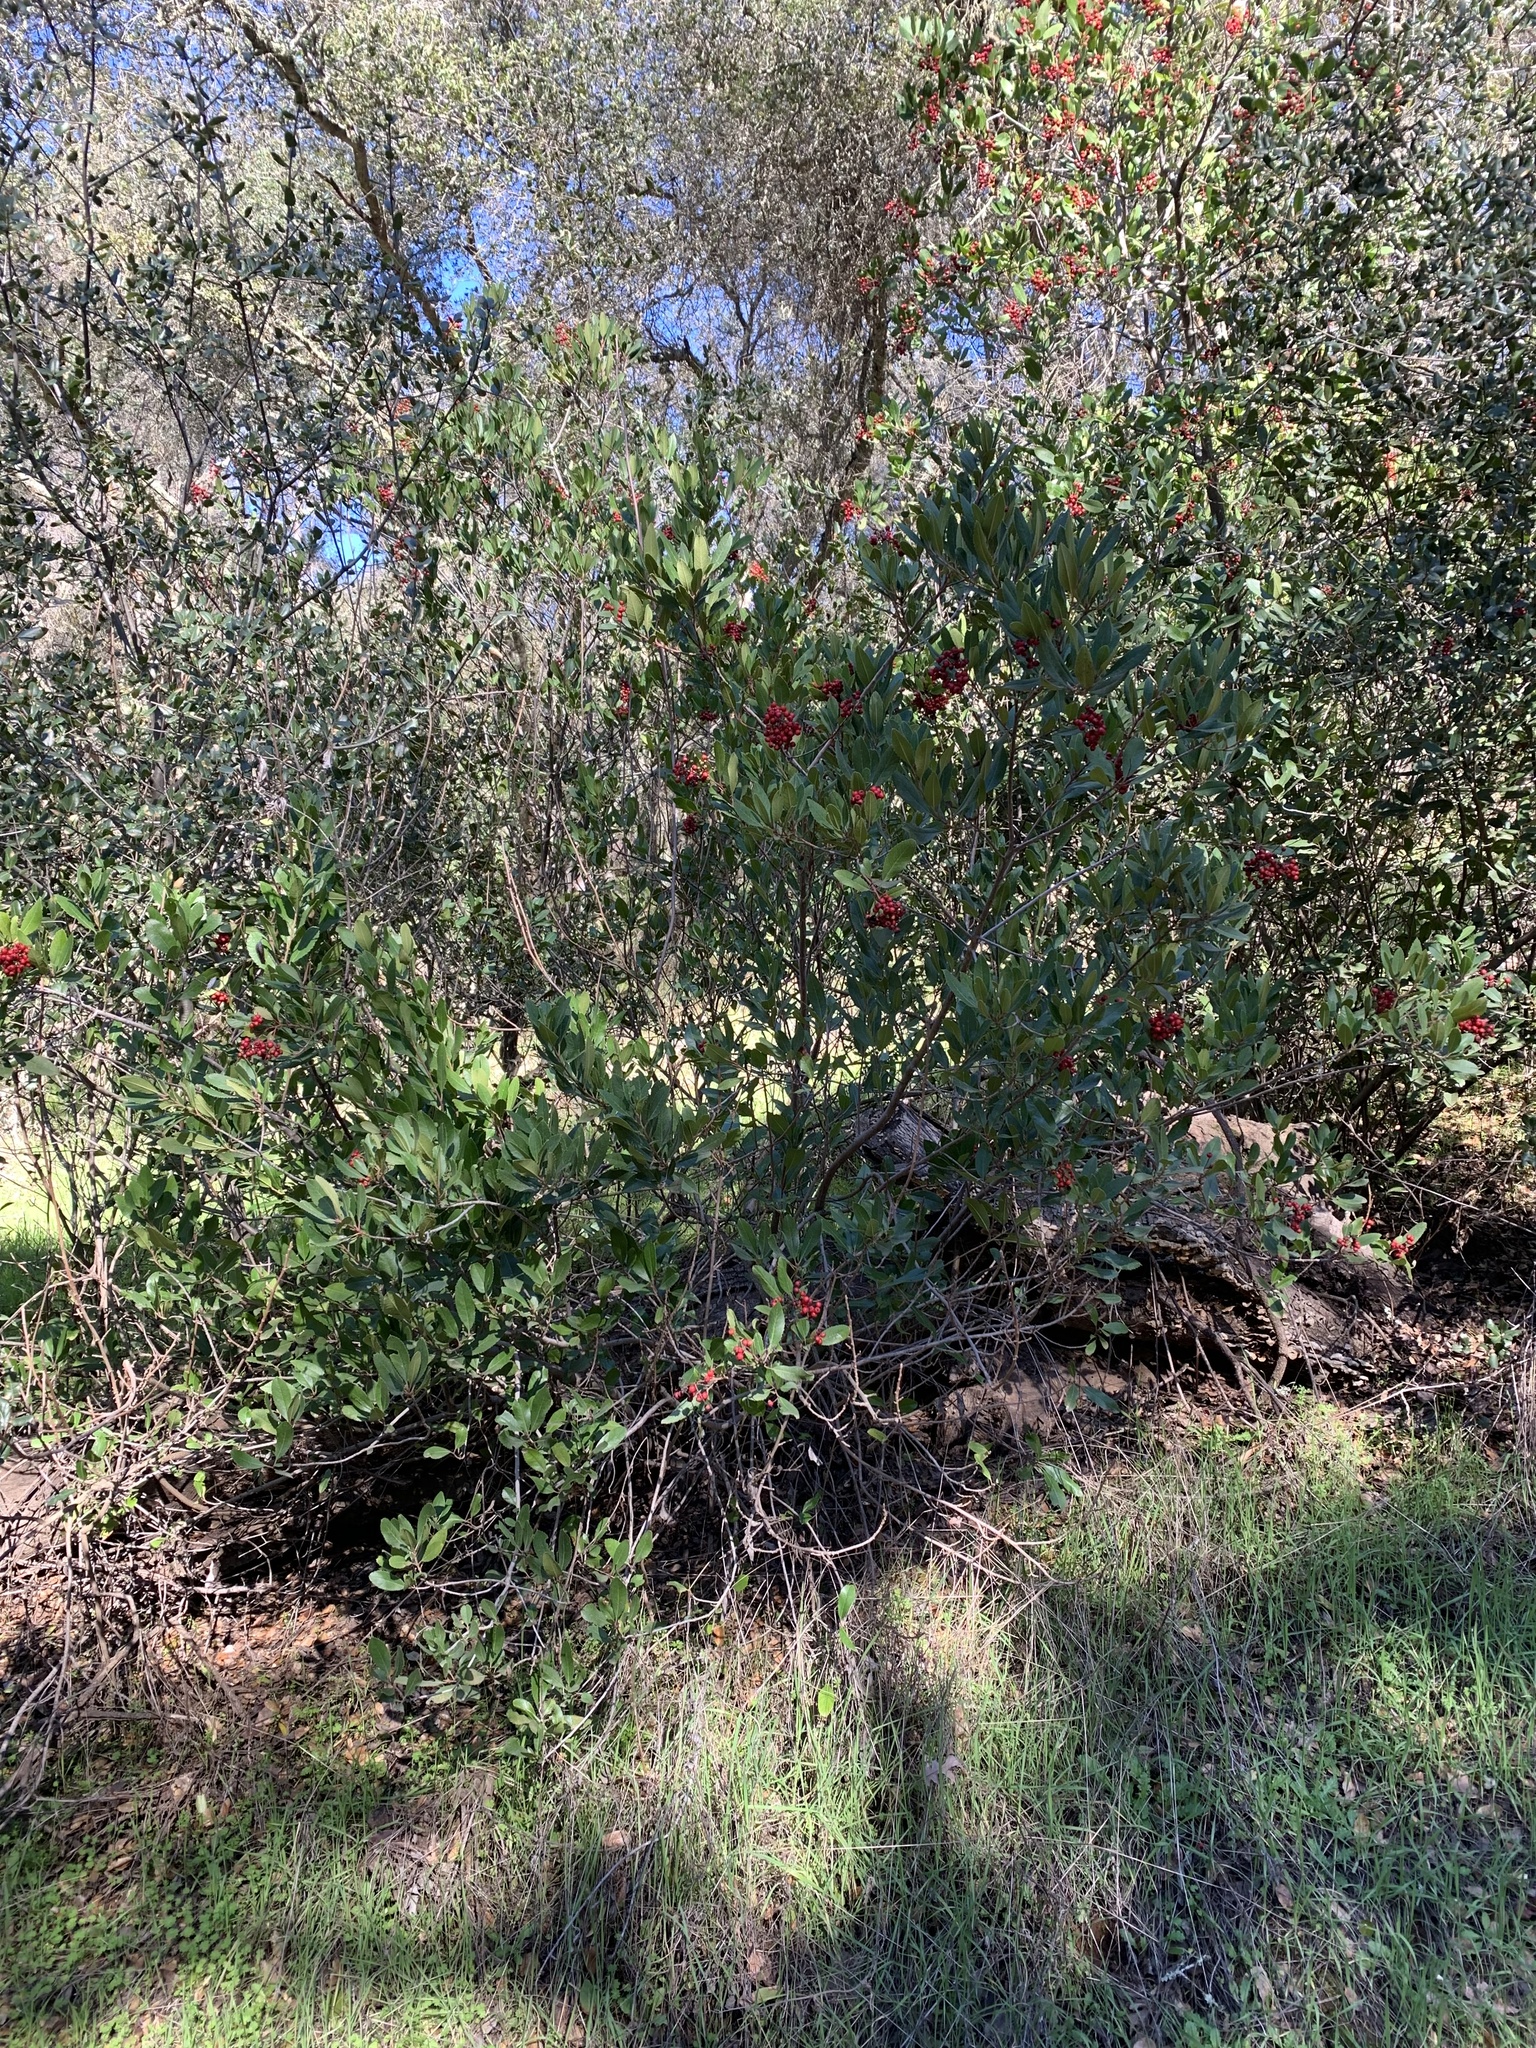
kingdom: Plantae
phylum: Tracheophyta
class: Magnoliopsida
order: Rosales
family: Rosaceae
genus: Heteromeles
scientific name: Heteromeles arbutifolia
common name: California-holly
